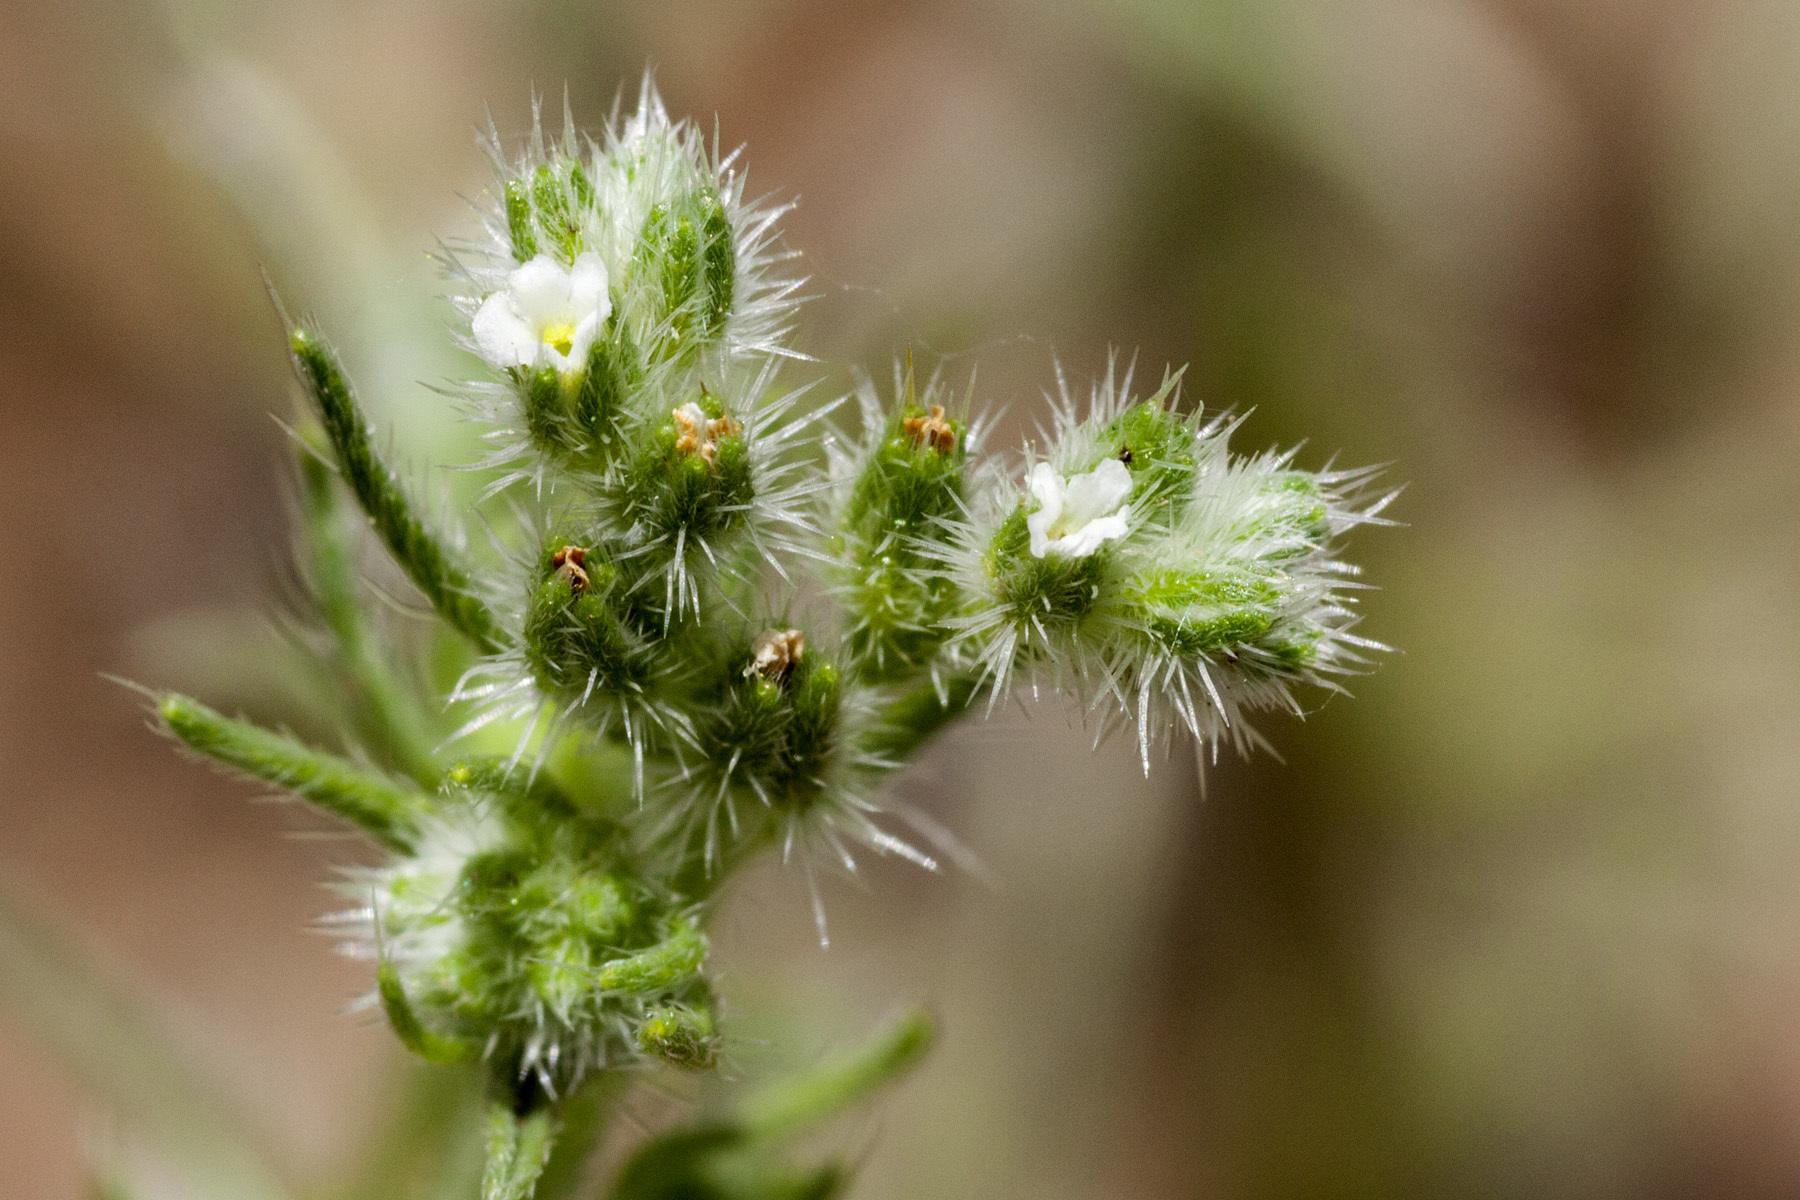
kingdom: Plantae
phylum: Tracheophyta
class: Magnoliopsida
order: Boraginales
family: Boraginaceae
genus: Cryptantha
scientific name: Cryptantha fendleri
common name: Sand-dune cryptantha
